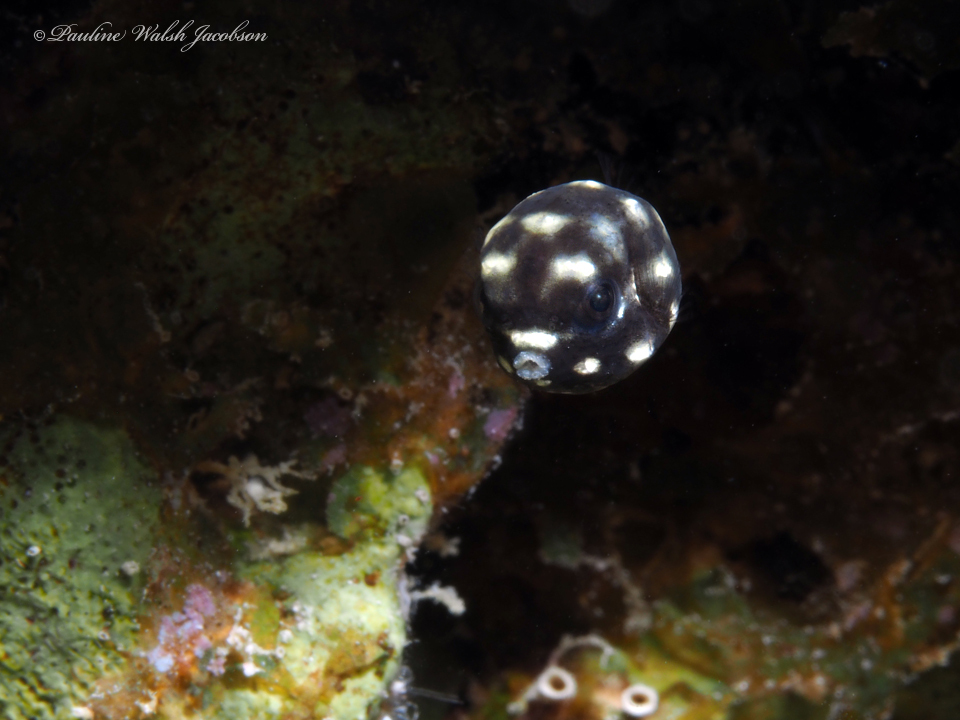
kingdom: Animalia
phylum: Chordata
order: Tetraodontiformes
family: Ostraciidae
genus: Lactophrys
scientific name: Lactophrys triqueter
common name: Smooth trunkfish
